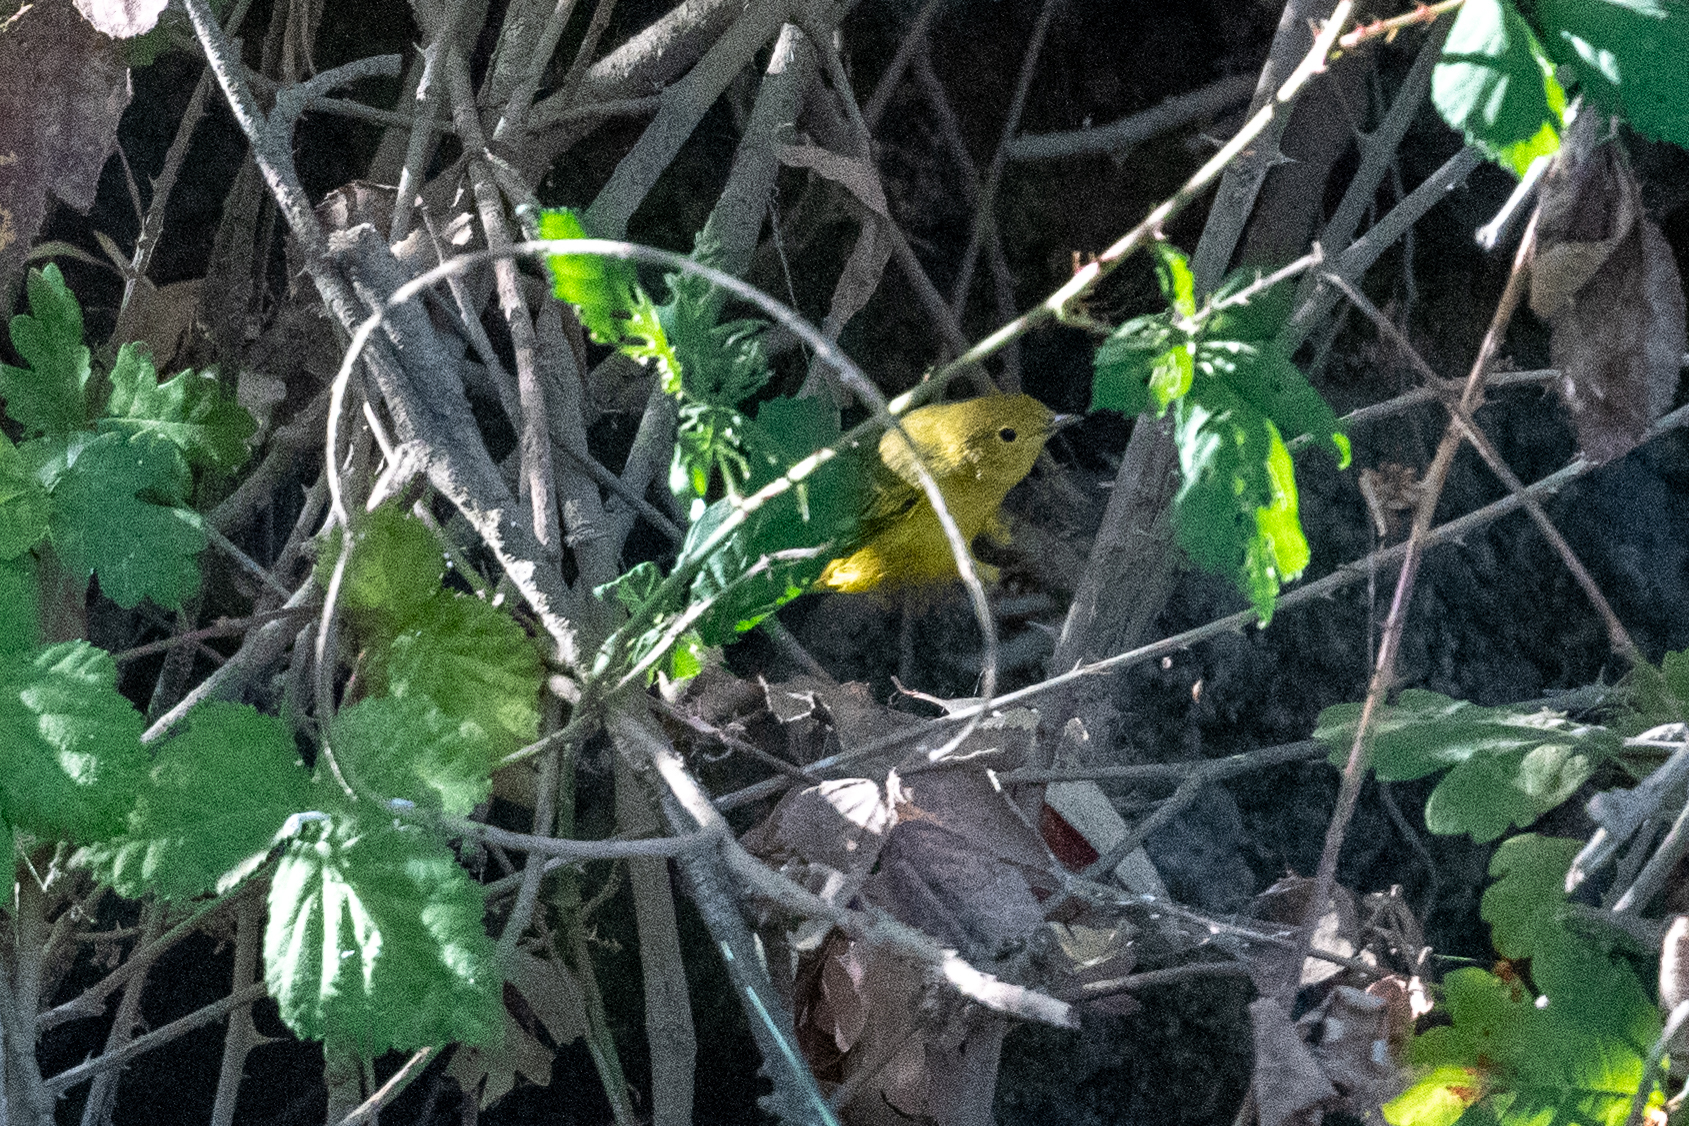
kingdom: Animalia
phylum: Chordata
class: Aves
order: Passeriformes
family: Parulidae
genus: Setophaga
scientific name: Setophaga petechia
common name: Yellow warbler
